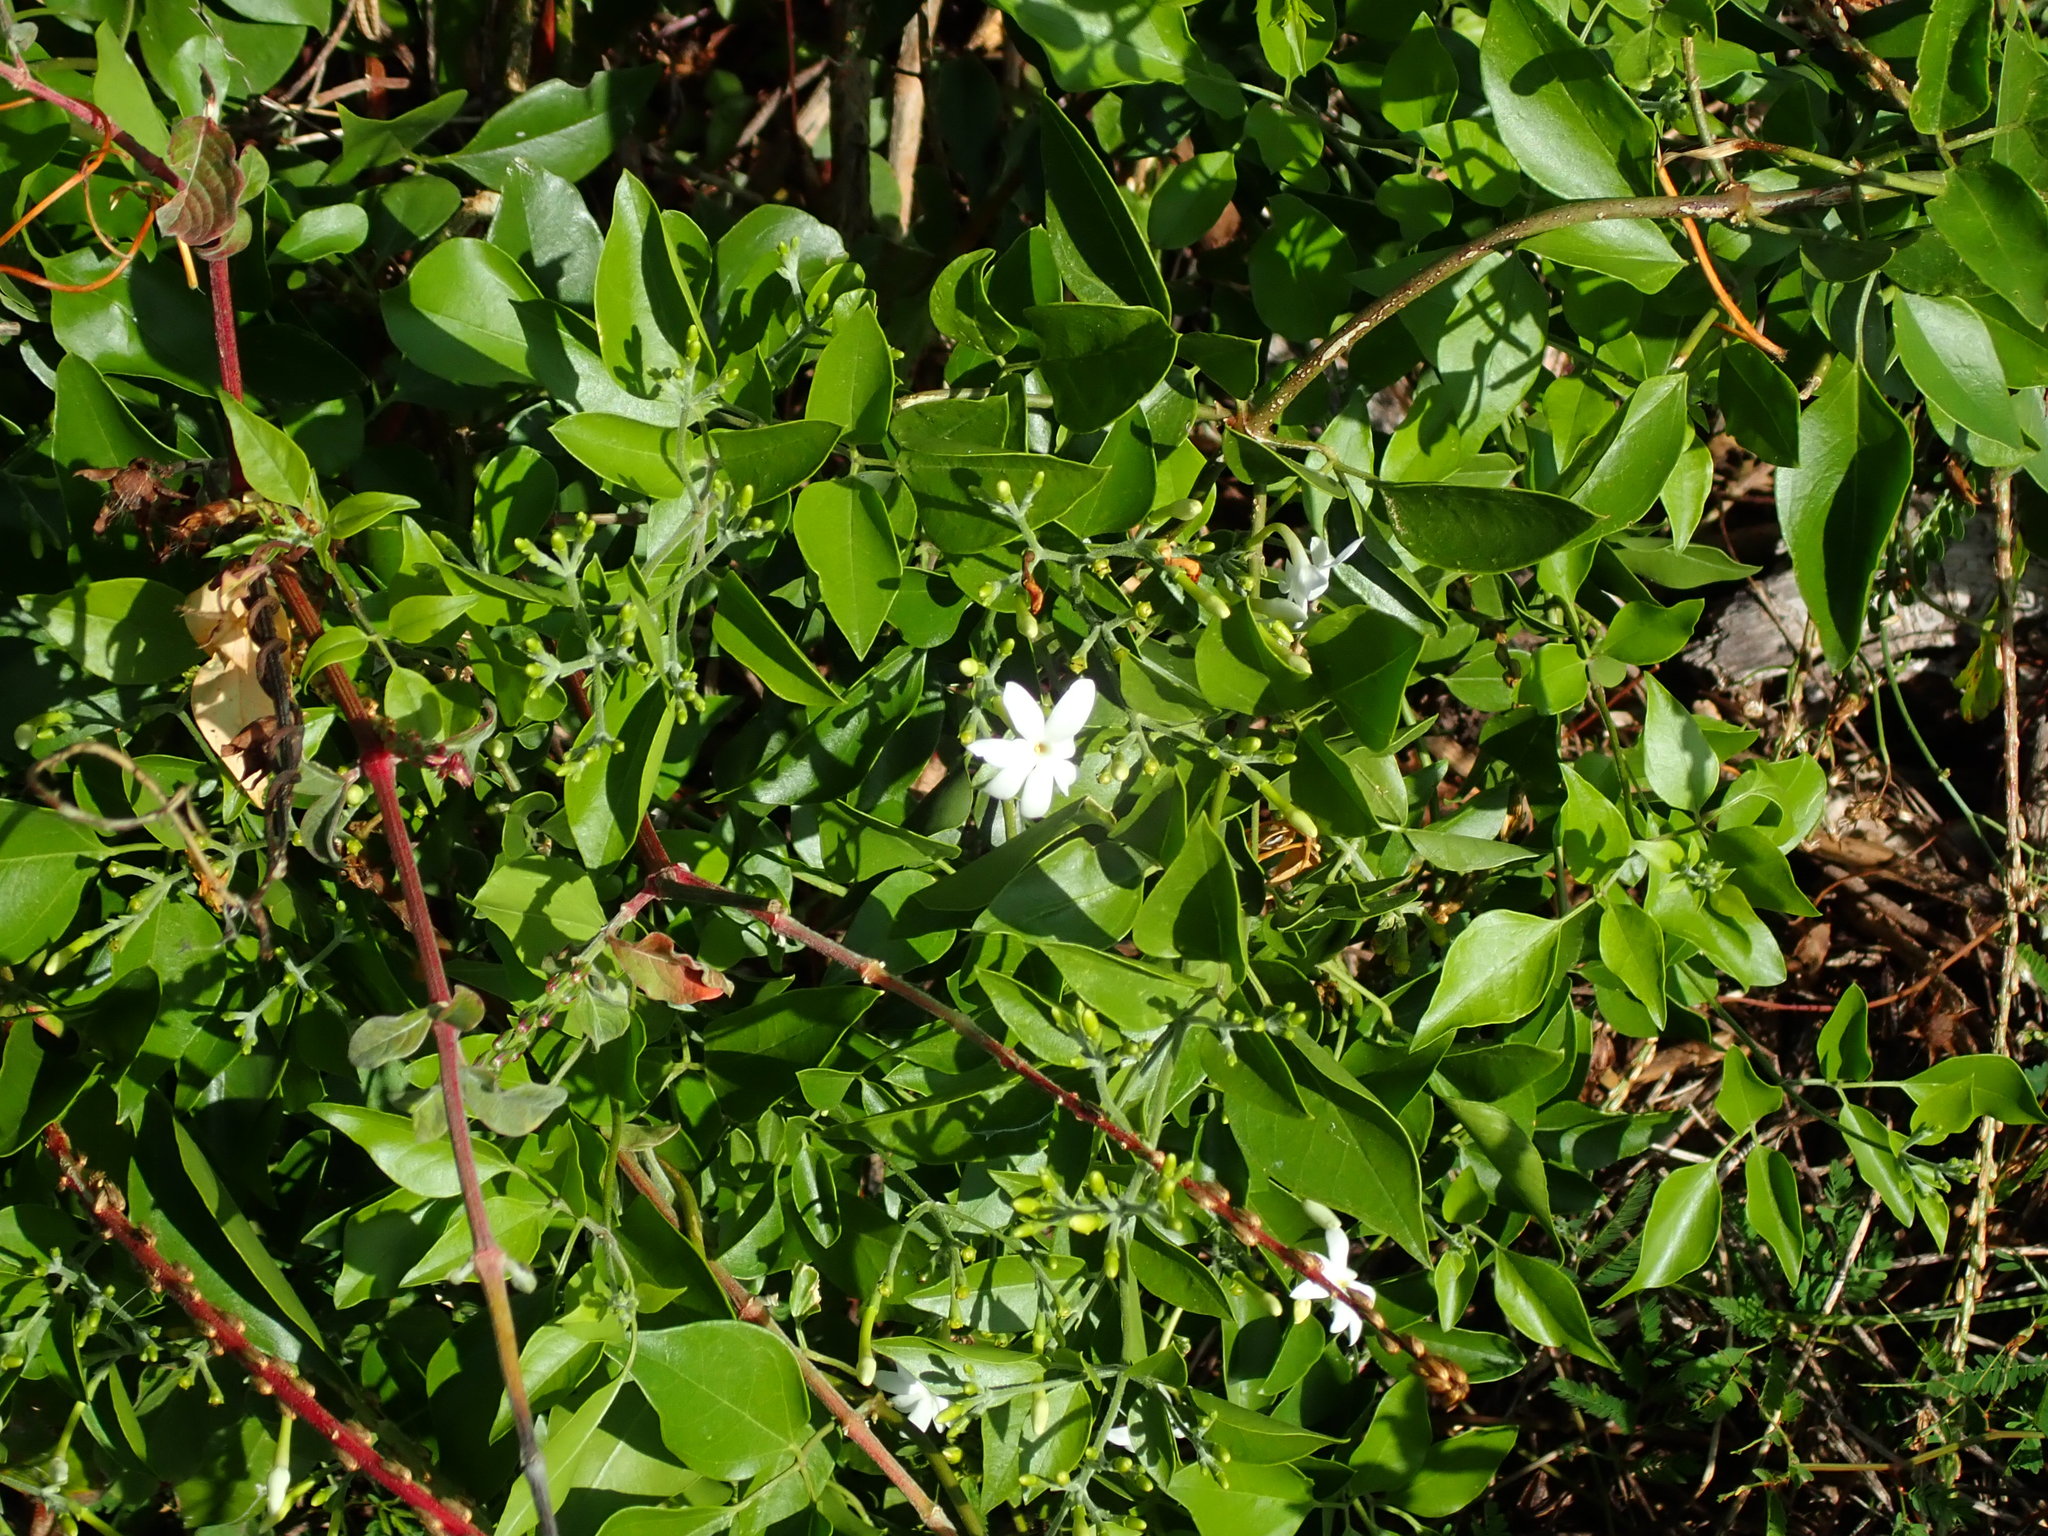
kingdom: Plantae
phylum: Tracheophyta
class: Magnoliopsida
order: Lamiales
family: Oleaceae
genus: Jasminum
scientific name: Jasminum fluminense
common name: Brazilian jasmine
